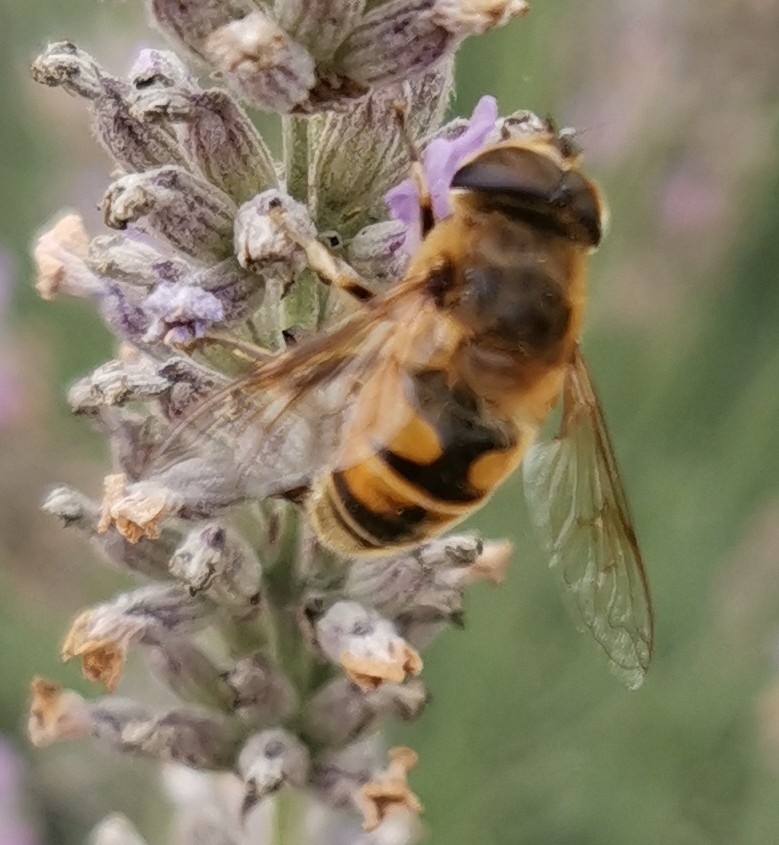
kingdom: Animalia
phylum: Arthropoda
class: Insecta
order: Diptera
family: Syrphidae
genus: Eristalis
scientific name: Eristalis tenax
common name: Drone fly
